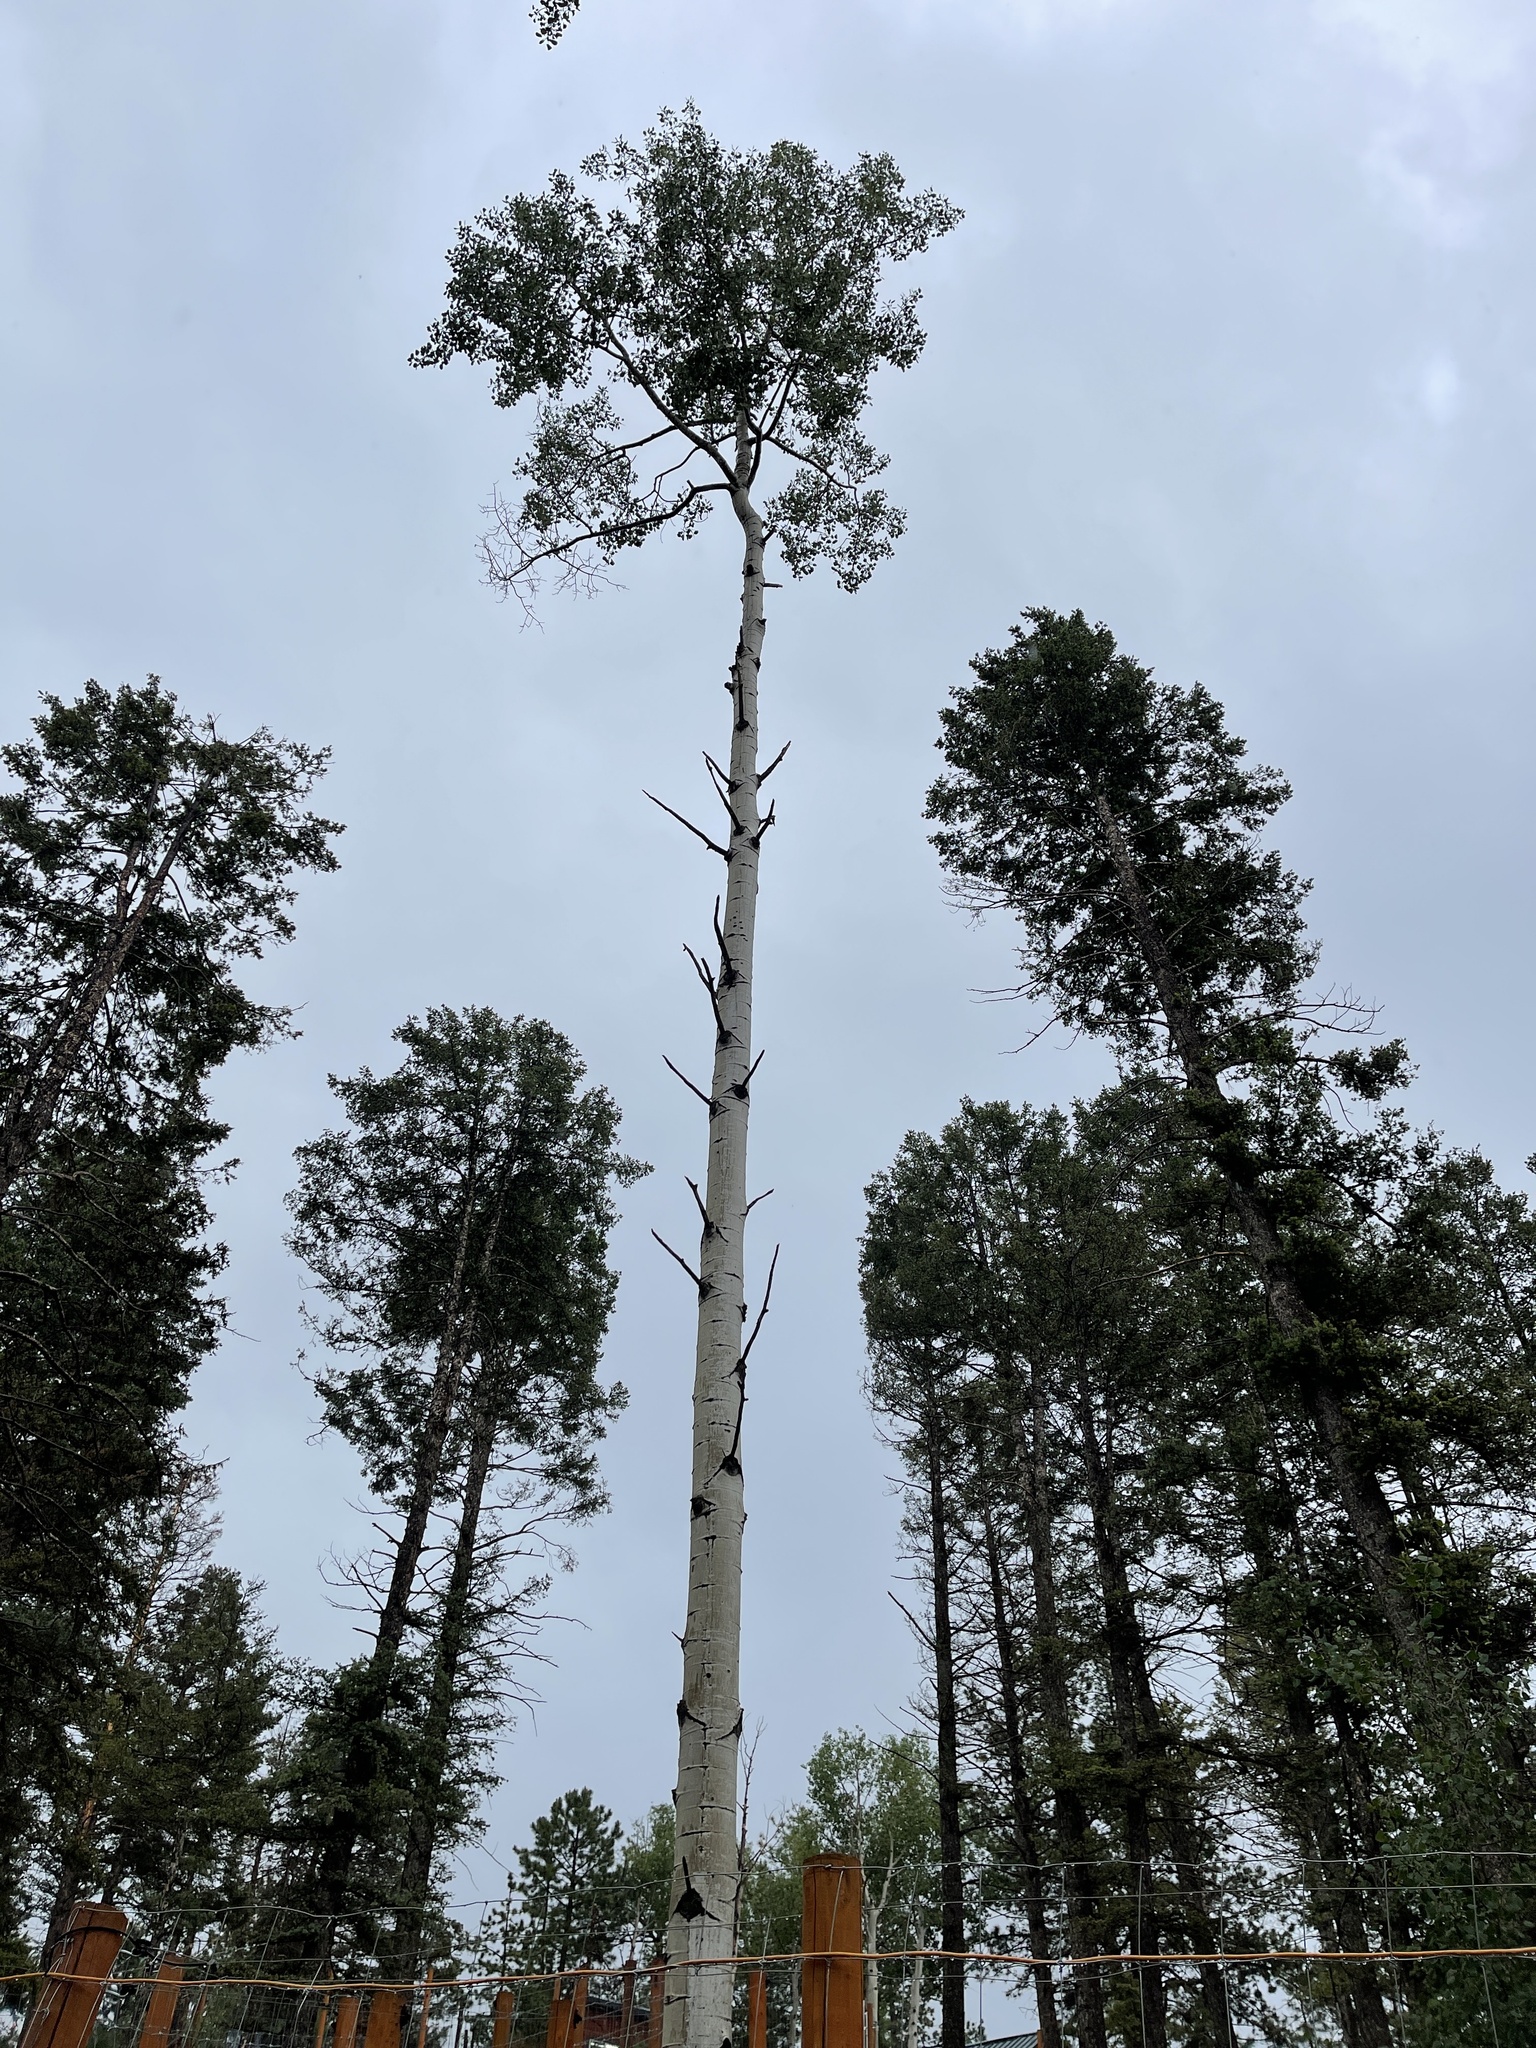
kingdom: Plantae
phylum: Tracheophyta
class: Magnoliopsida
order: Malpighiales
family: Salicaceae
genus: Populus
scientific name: Populus tremuloides
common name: Quaking aspen
